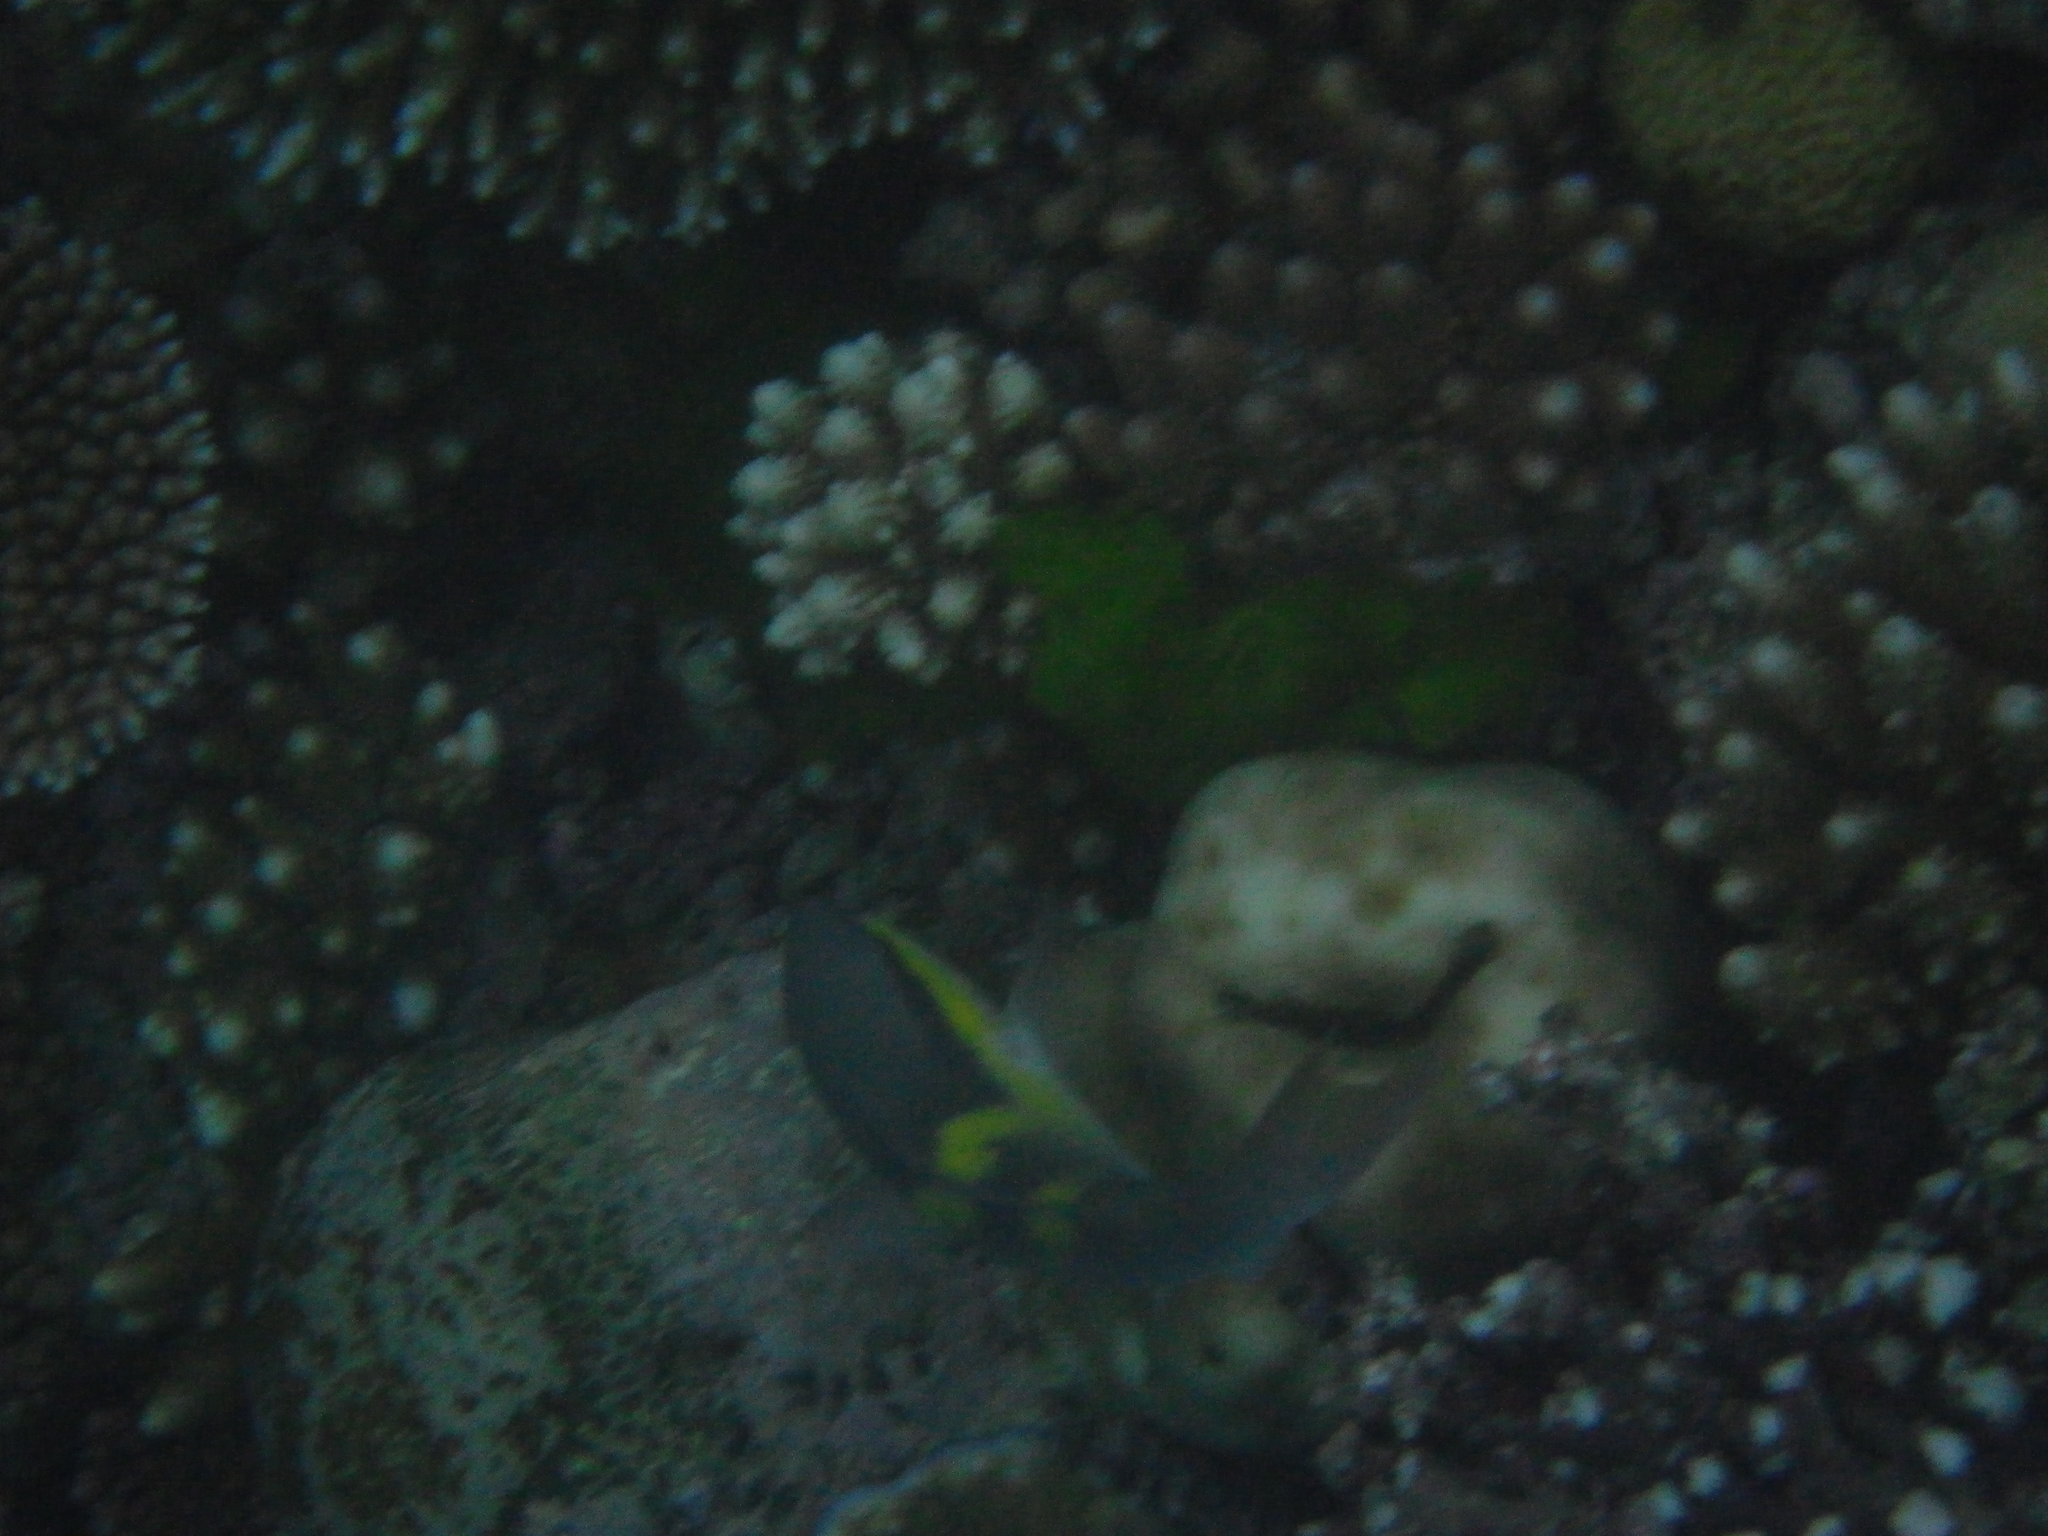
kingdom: Animalia
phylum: Chordata
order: Perciformes
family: Scaridae
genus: Scarus
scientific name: Scarus oviceps
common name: Blue parrotfish
